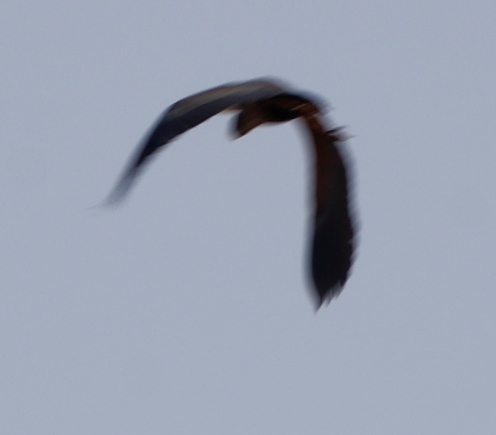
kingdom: Animalia
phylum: Chordata
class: Aves
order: Pelecaniformes
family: Ardeidae
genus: Ardea
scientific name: Ardea purpurea
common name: Purple heron
